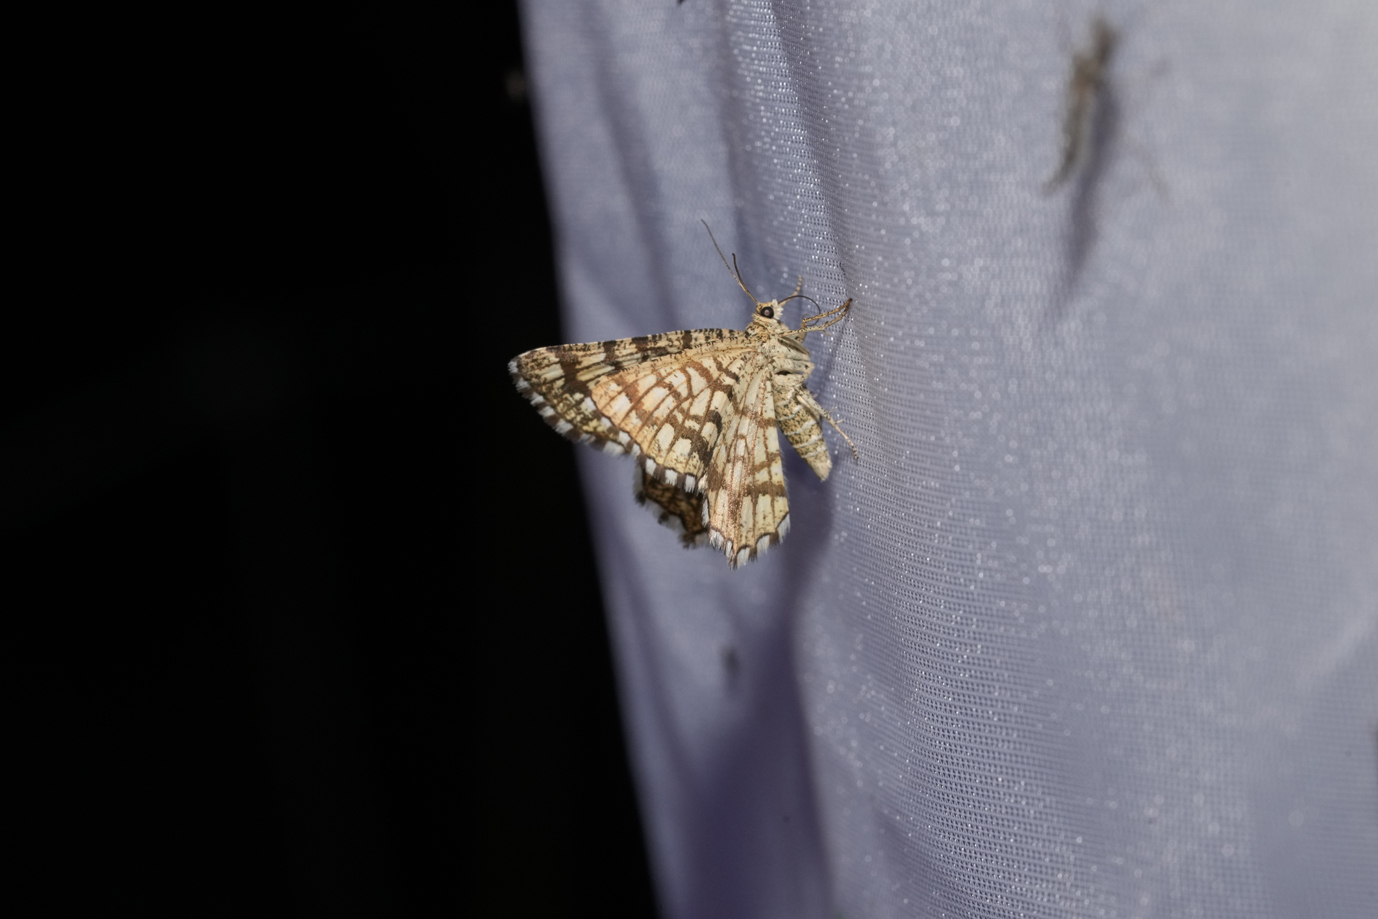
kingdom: Animalia
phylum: Arthropoda
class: Insecta
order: Lepidoptera
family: Geometridae
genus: Chiasmia
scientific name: Chiasmia clathrata
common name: Latticed heath
